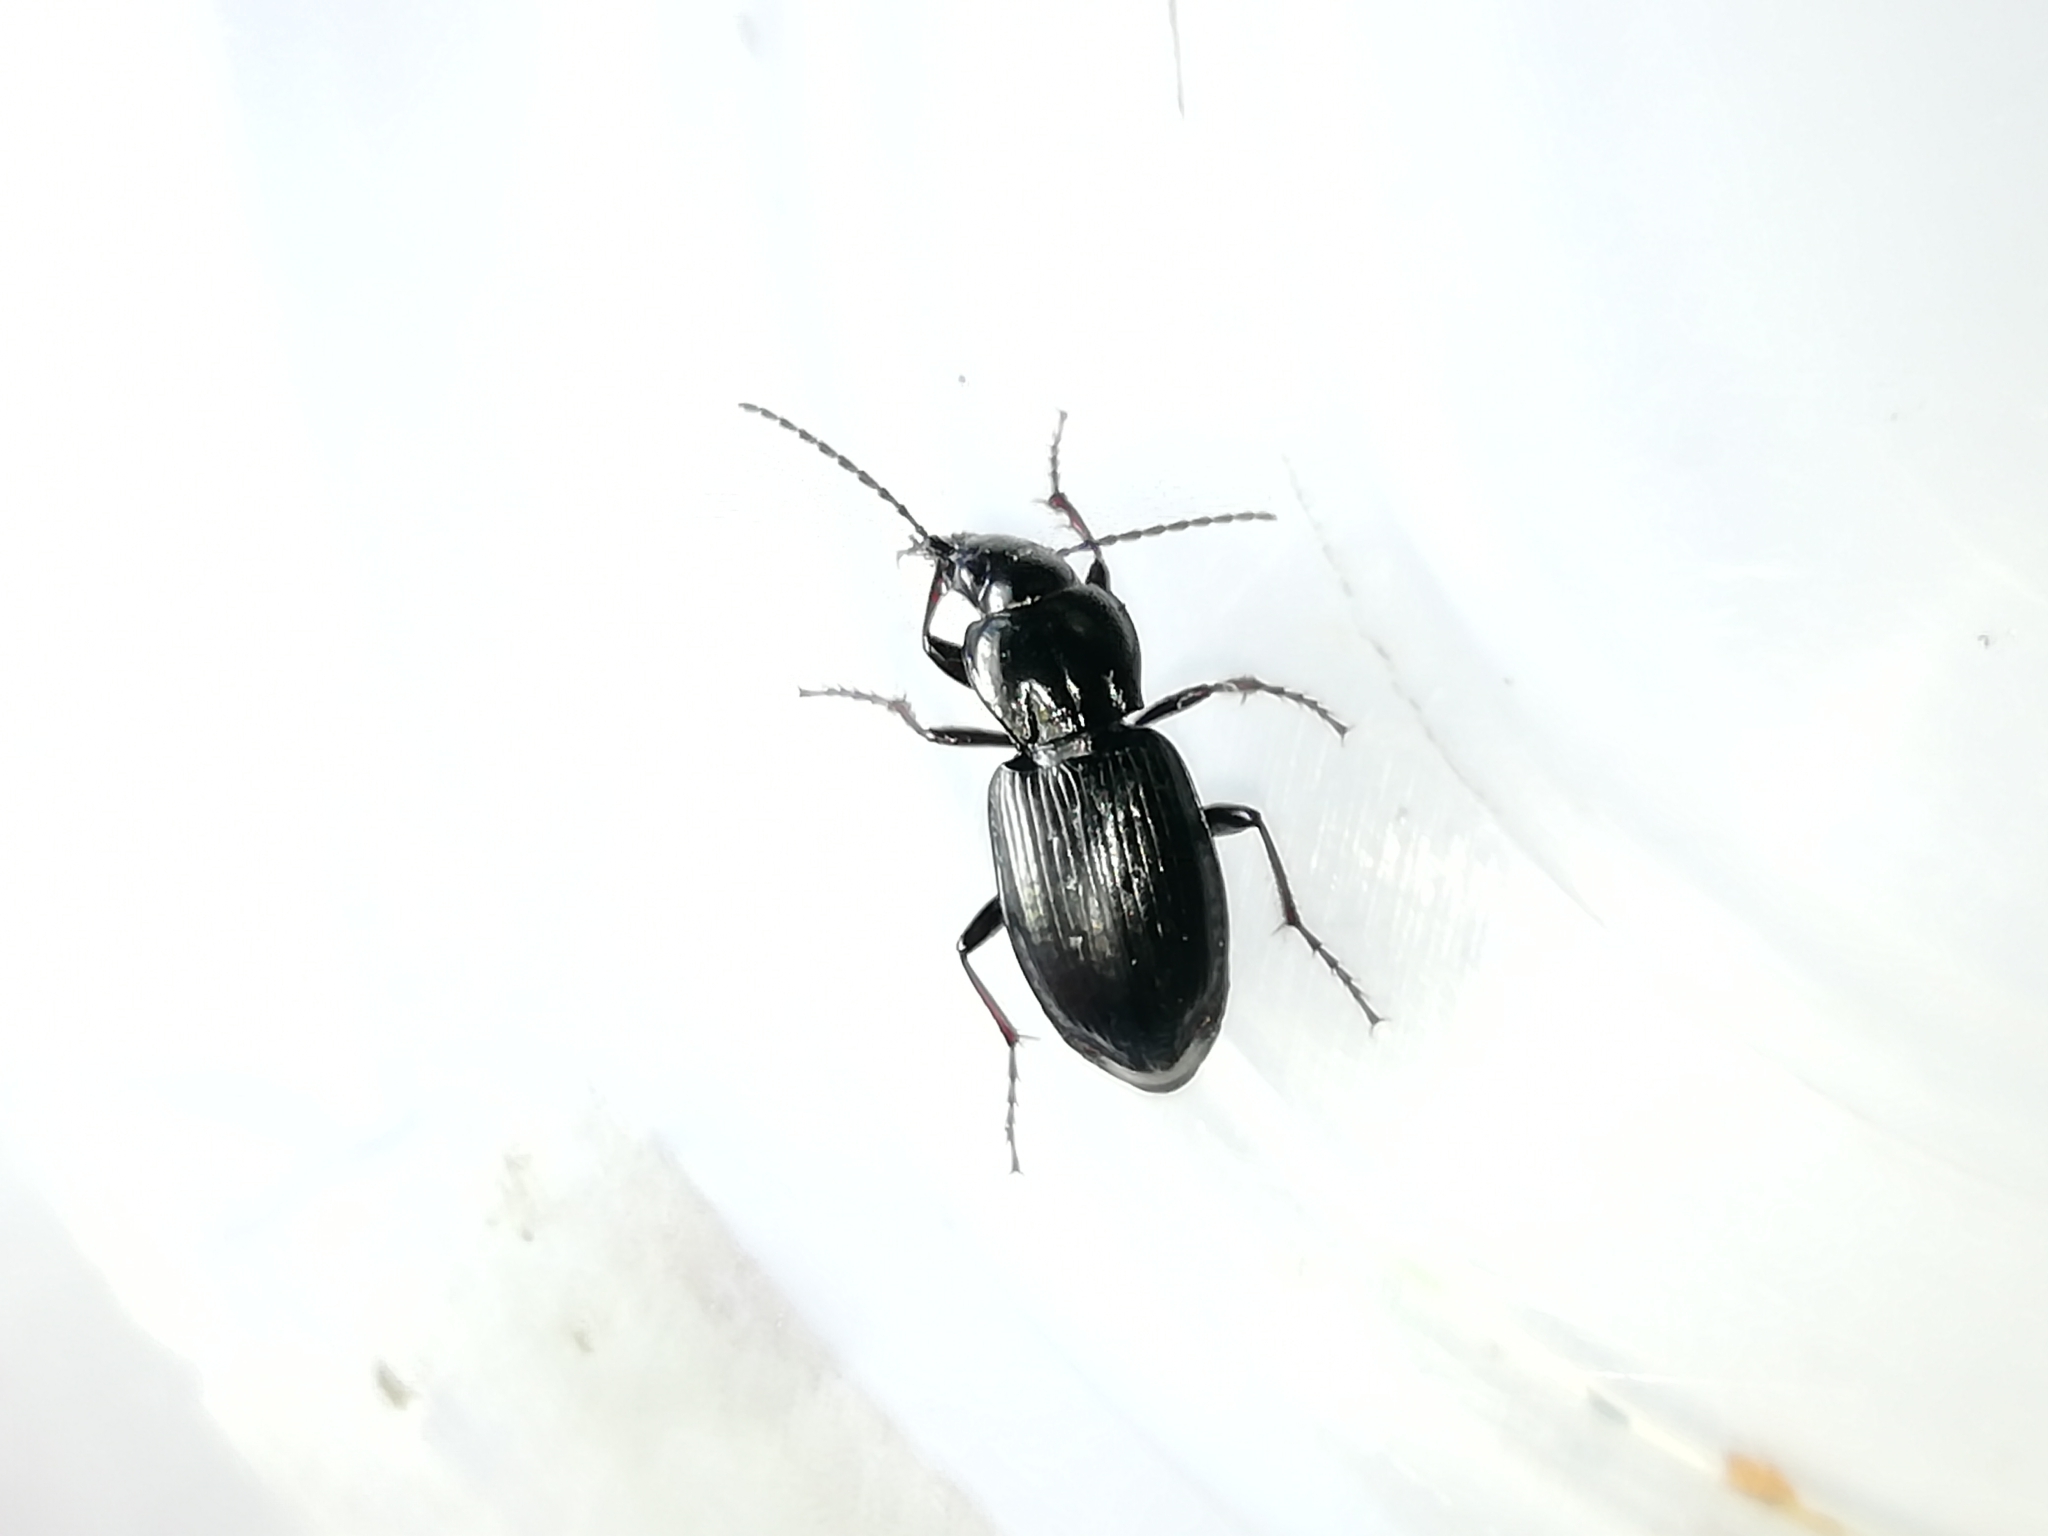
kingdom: Animalia
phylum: Arthropoda
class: Insecta
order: Coleoptera
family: Carabidae
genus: Pterostichus
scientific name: Pterostichus oblongopunctatus
